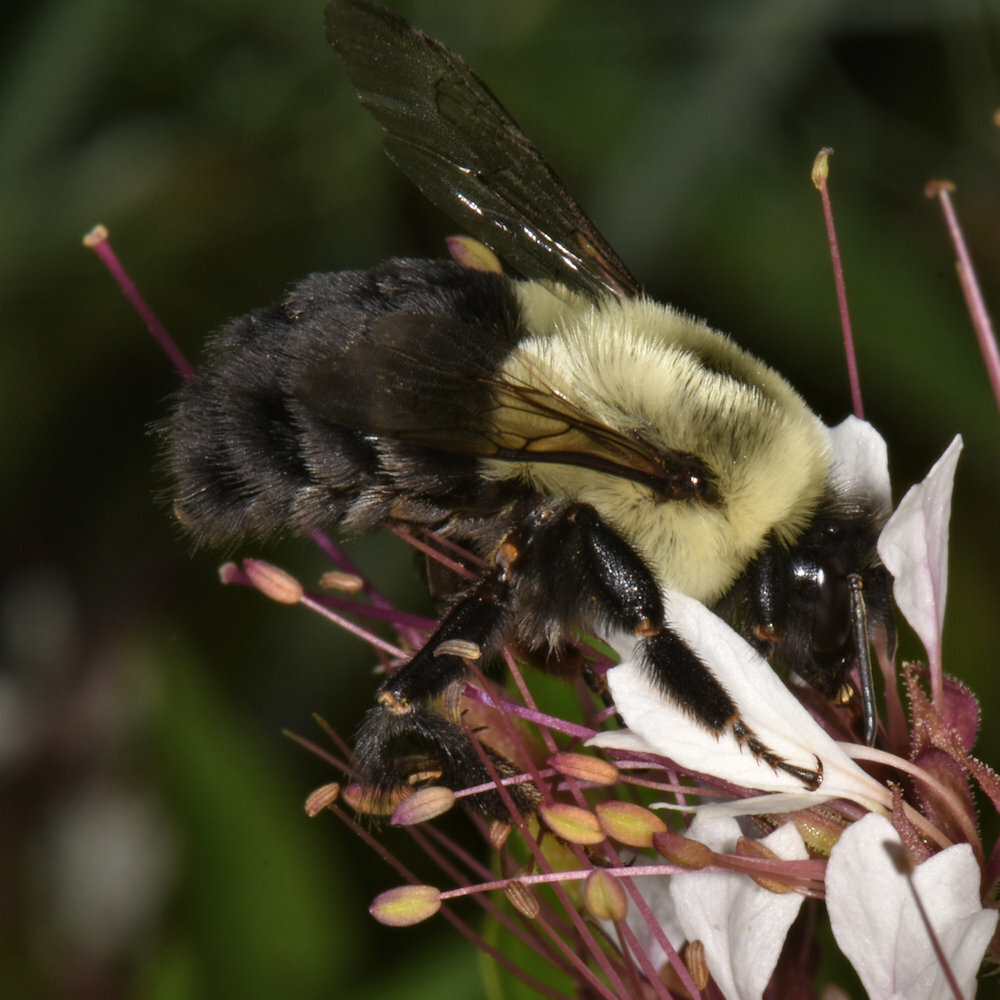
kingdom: Animalia
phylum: Arthropoda
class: Insecta
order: Hymenoptera
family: Apidae
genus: Bombus
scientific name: Bombus impatiens
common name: Common eastern bumble bee
